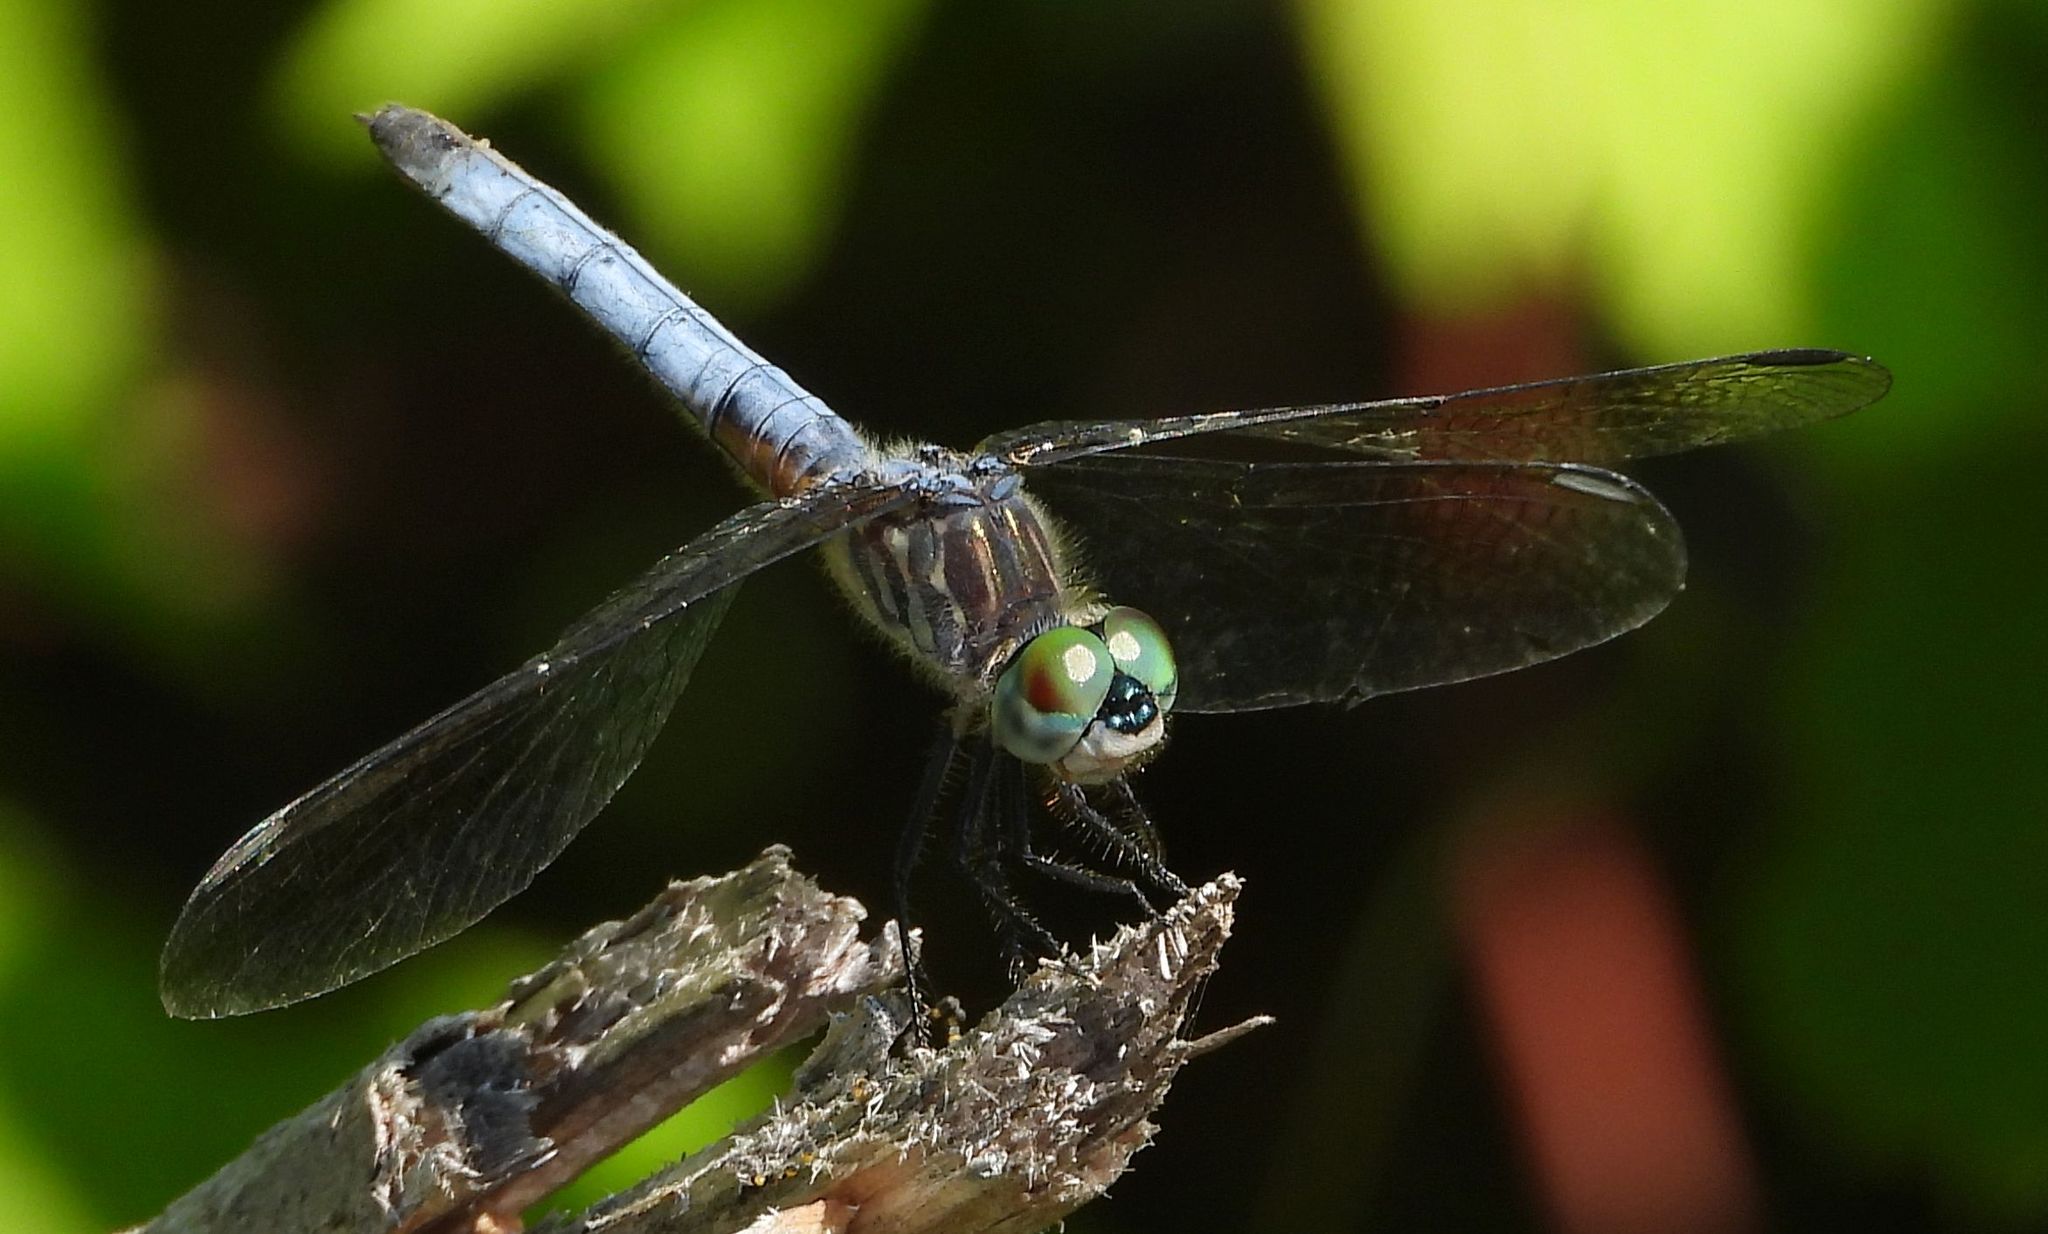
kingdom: Animalia
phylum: Arthropoda
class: Insecta
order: Odonata
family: Libellulidae
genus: Pachydiplax
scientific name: Pachydiplax longipennis
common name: Blue dasher
